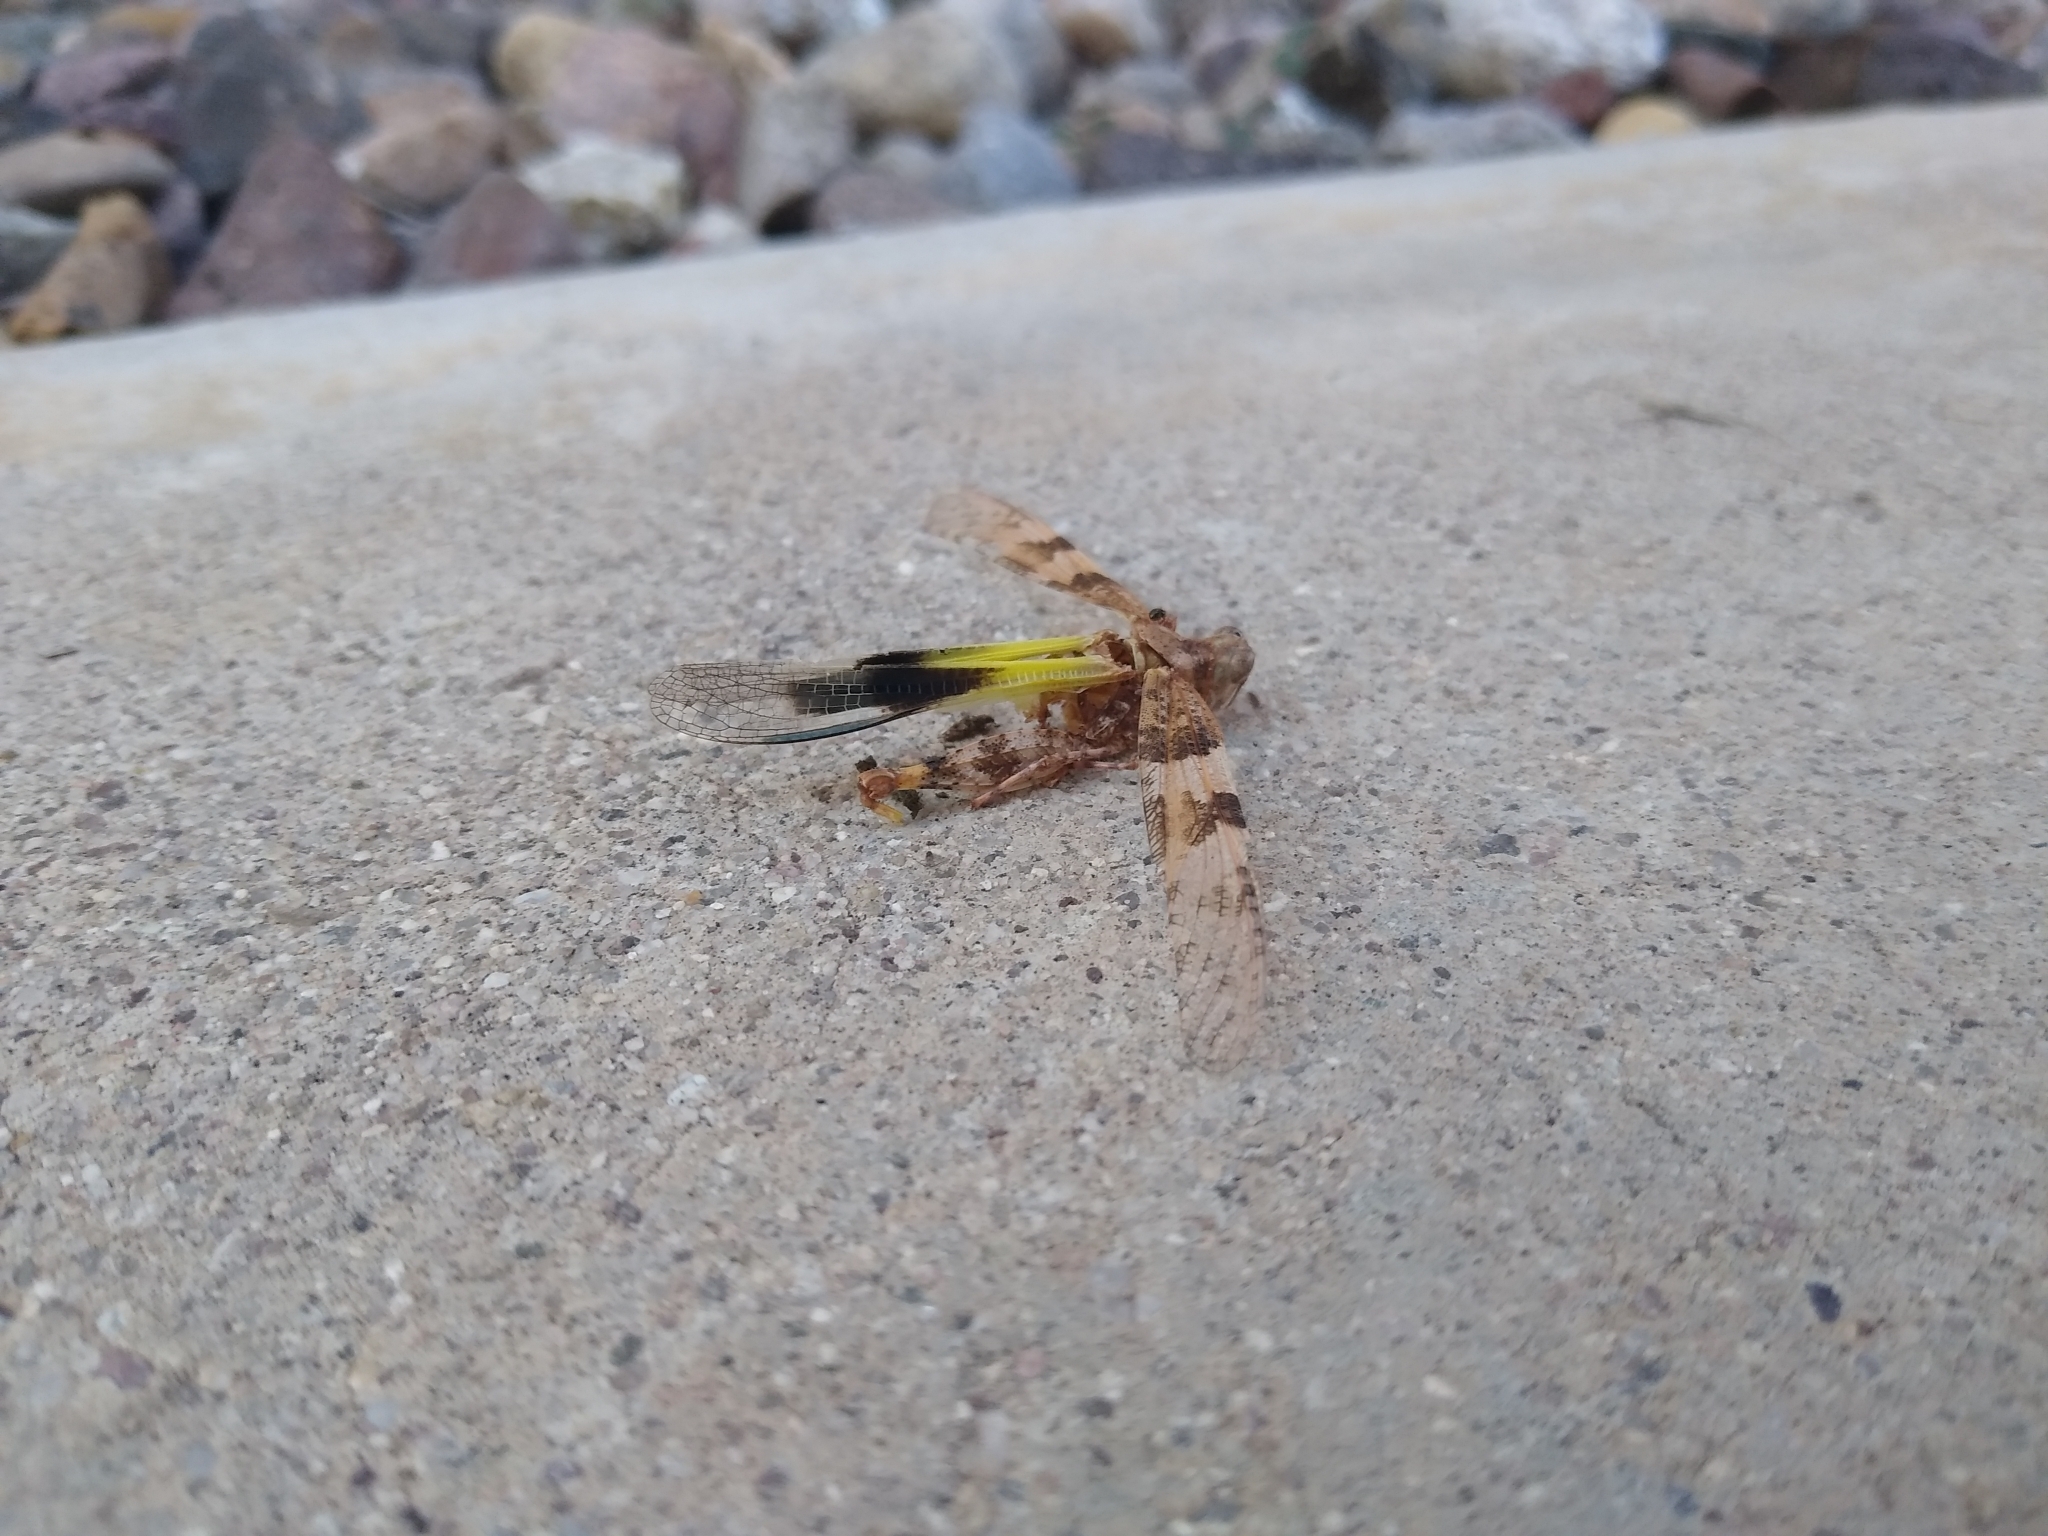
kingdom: Animalia
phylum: Arthropoda
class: Insecta
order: Orthoptera
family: Acrididae
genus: Trimerotropis
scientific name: Trimerotropis pallidipennis
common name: Pallid-winged grasshopper
